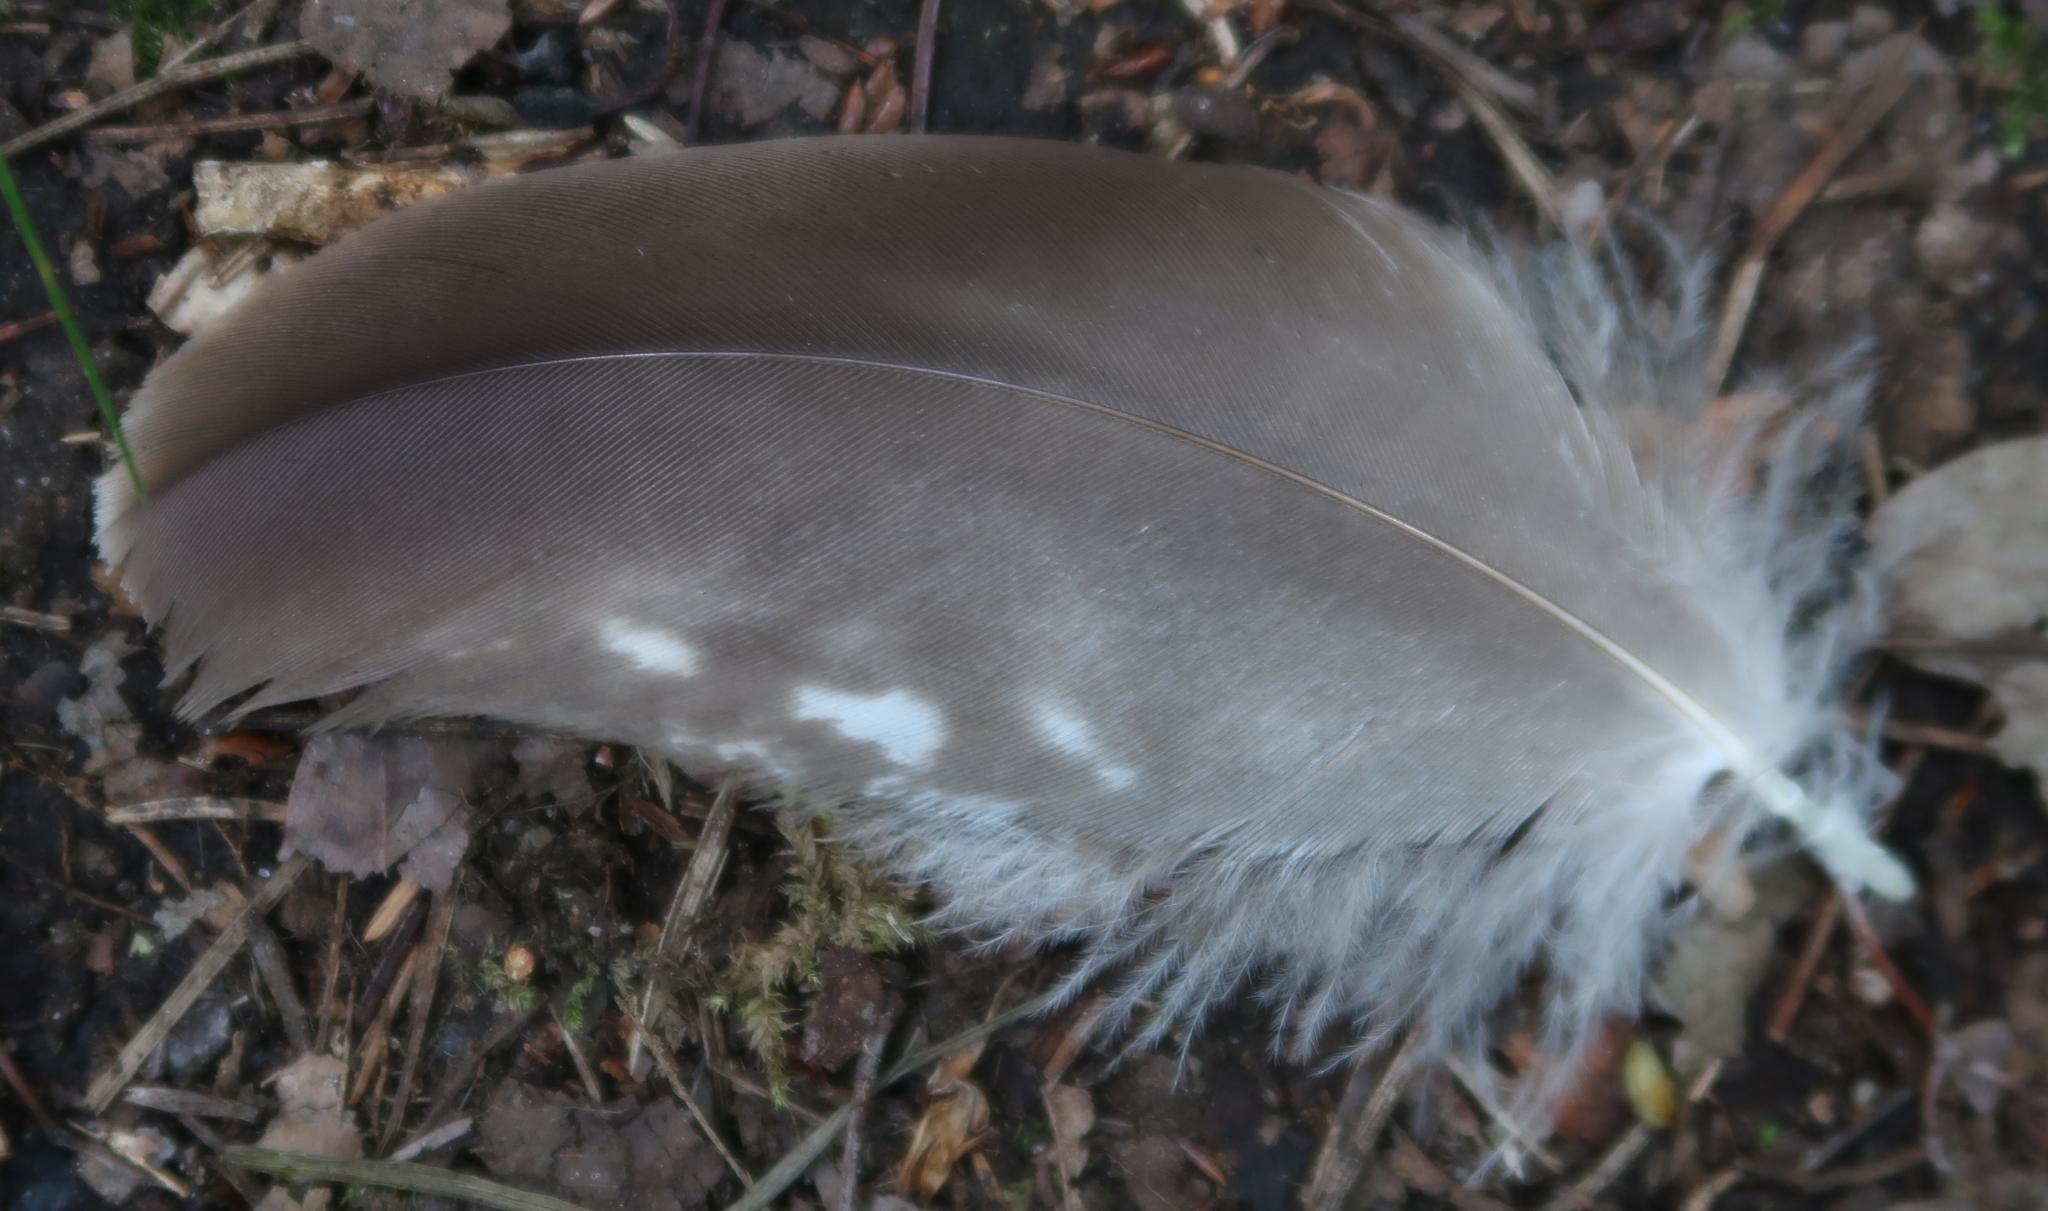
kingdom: Animalia
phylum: Chordata
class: Aves
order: Accipitriformes
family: Accipitridae
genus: Buteo
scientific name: Buteo buteo
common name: Common buzzard
